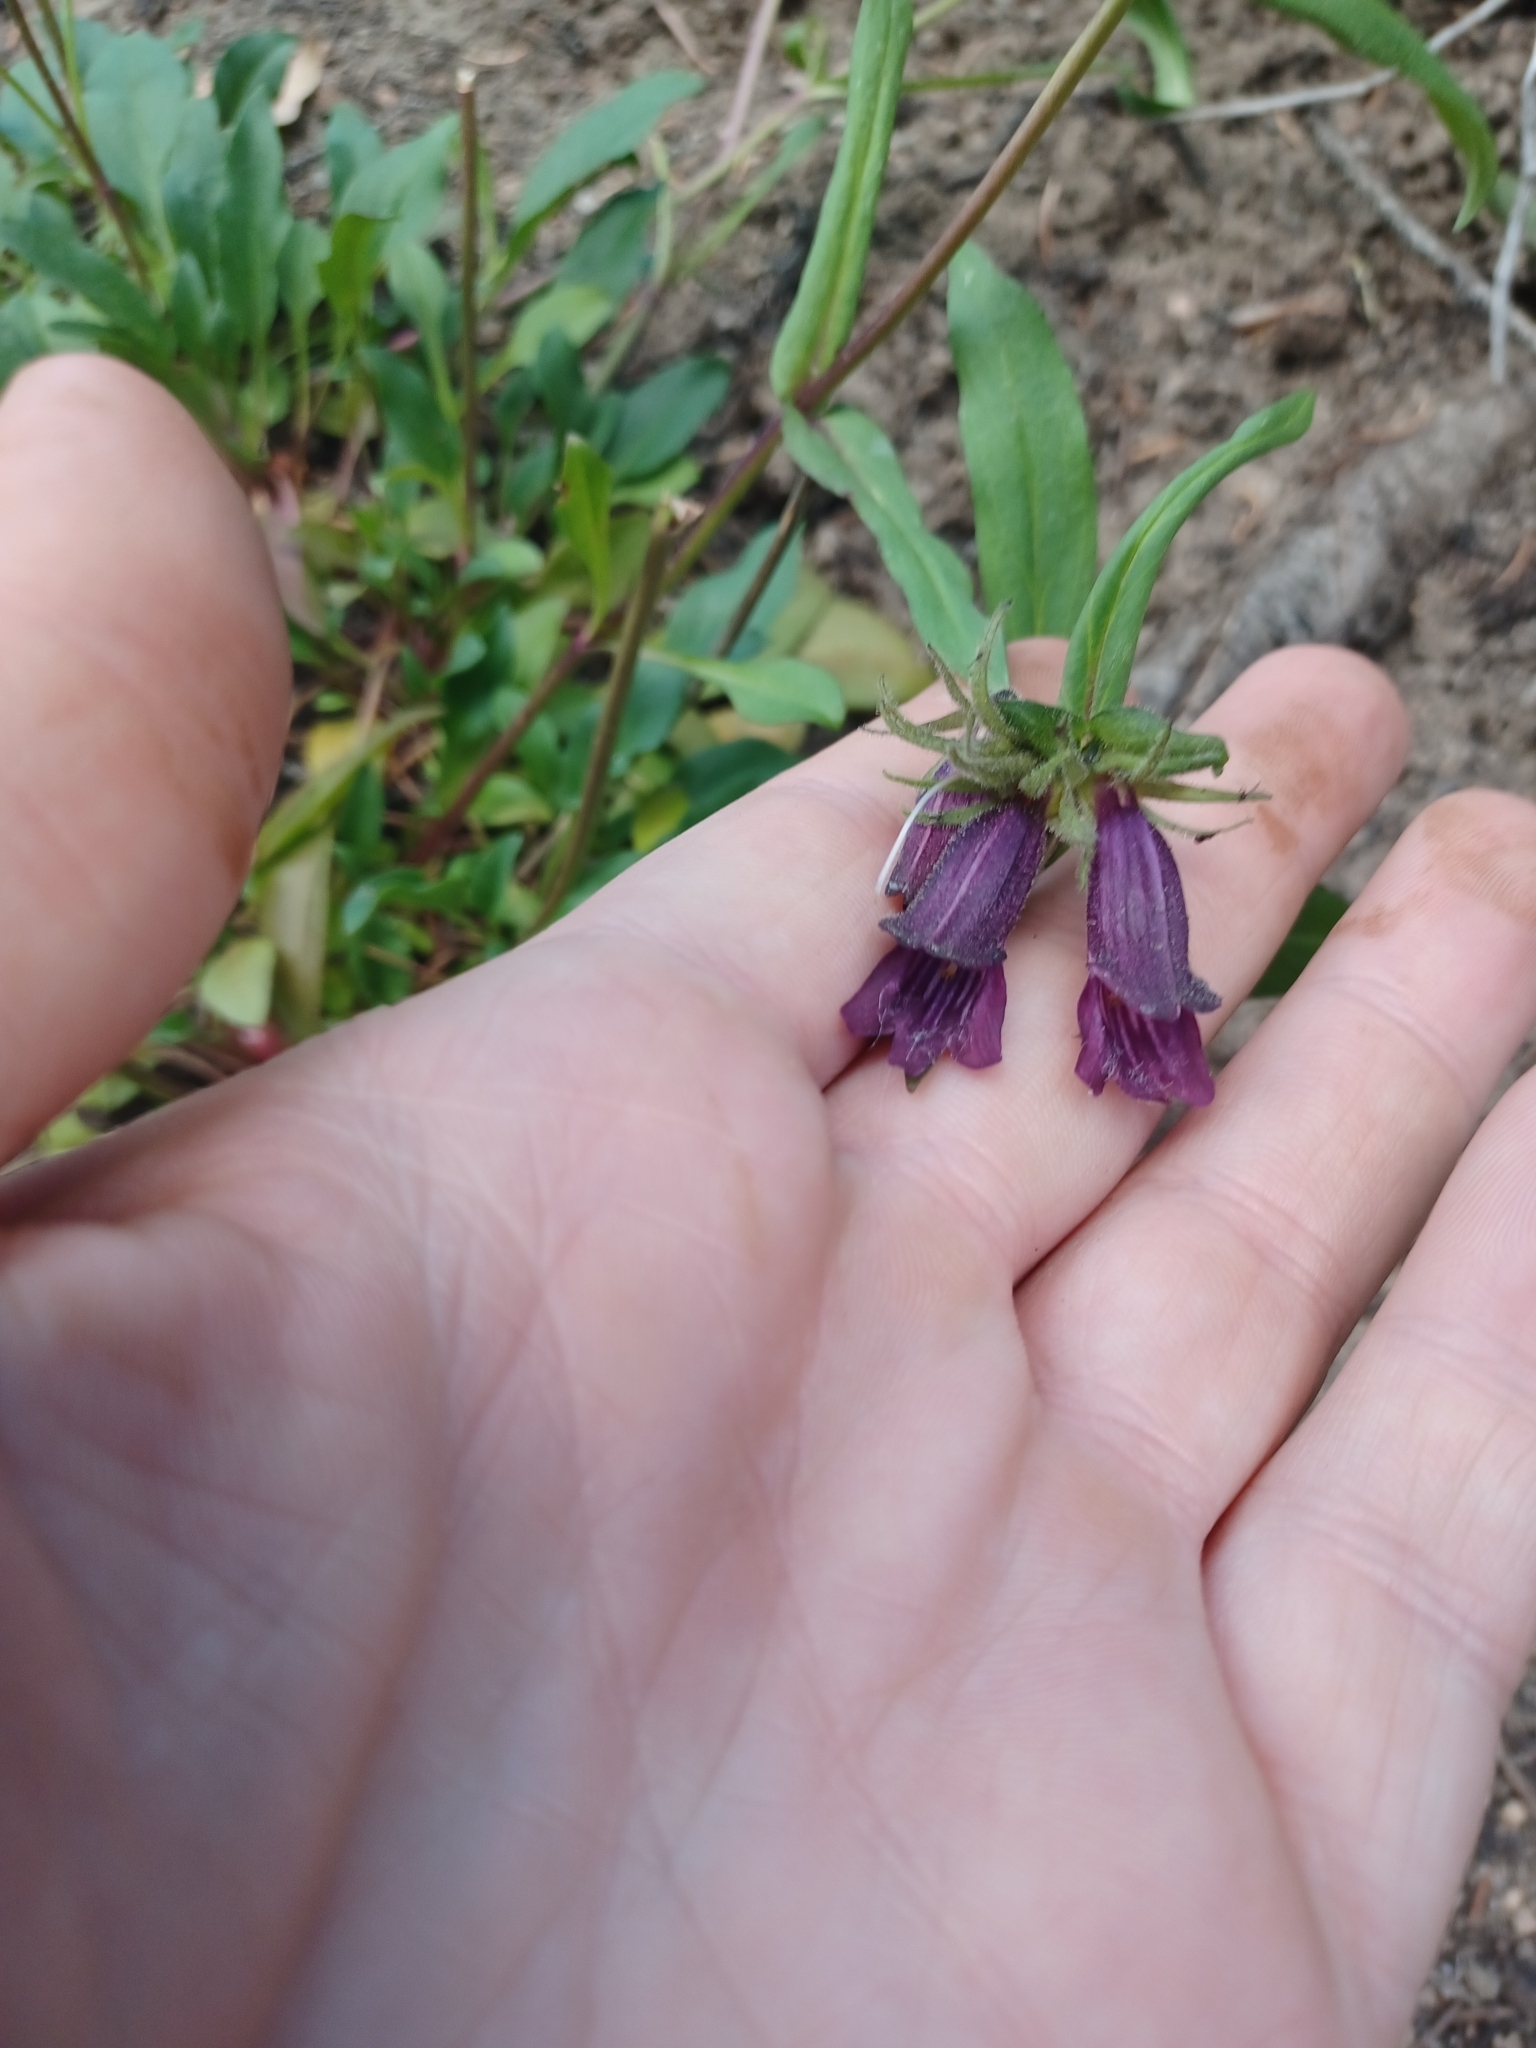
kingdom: Plantae
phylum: Tracheophyta
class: Magnoliopsida
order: Lamiales
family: Plantaginaceae
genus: Penstemon
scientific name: Penstemon whippleanus
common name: Whipple's penstemon
